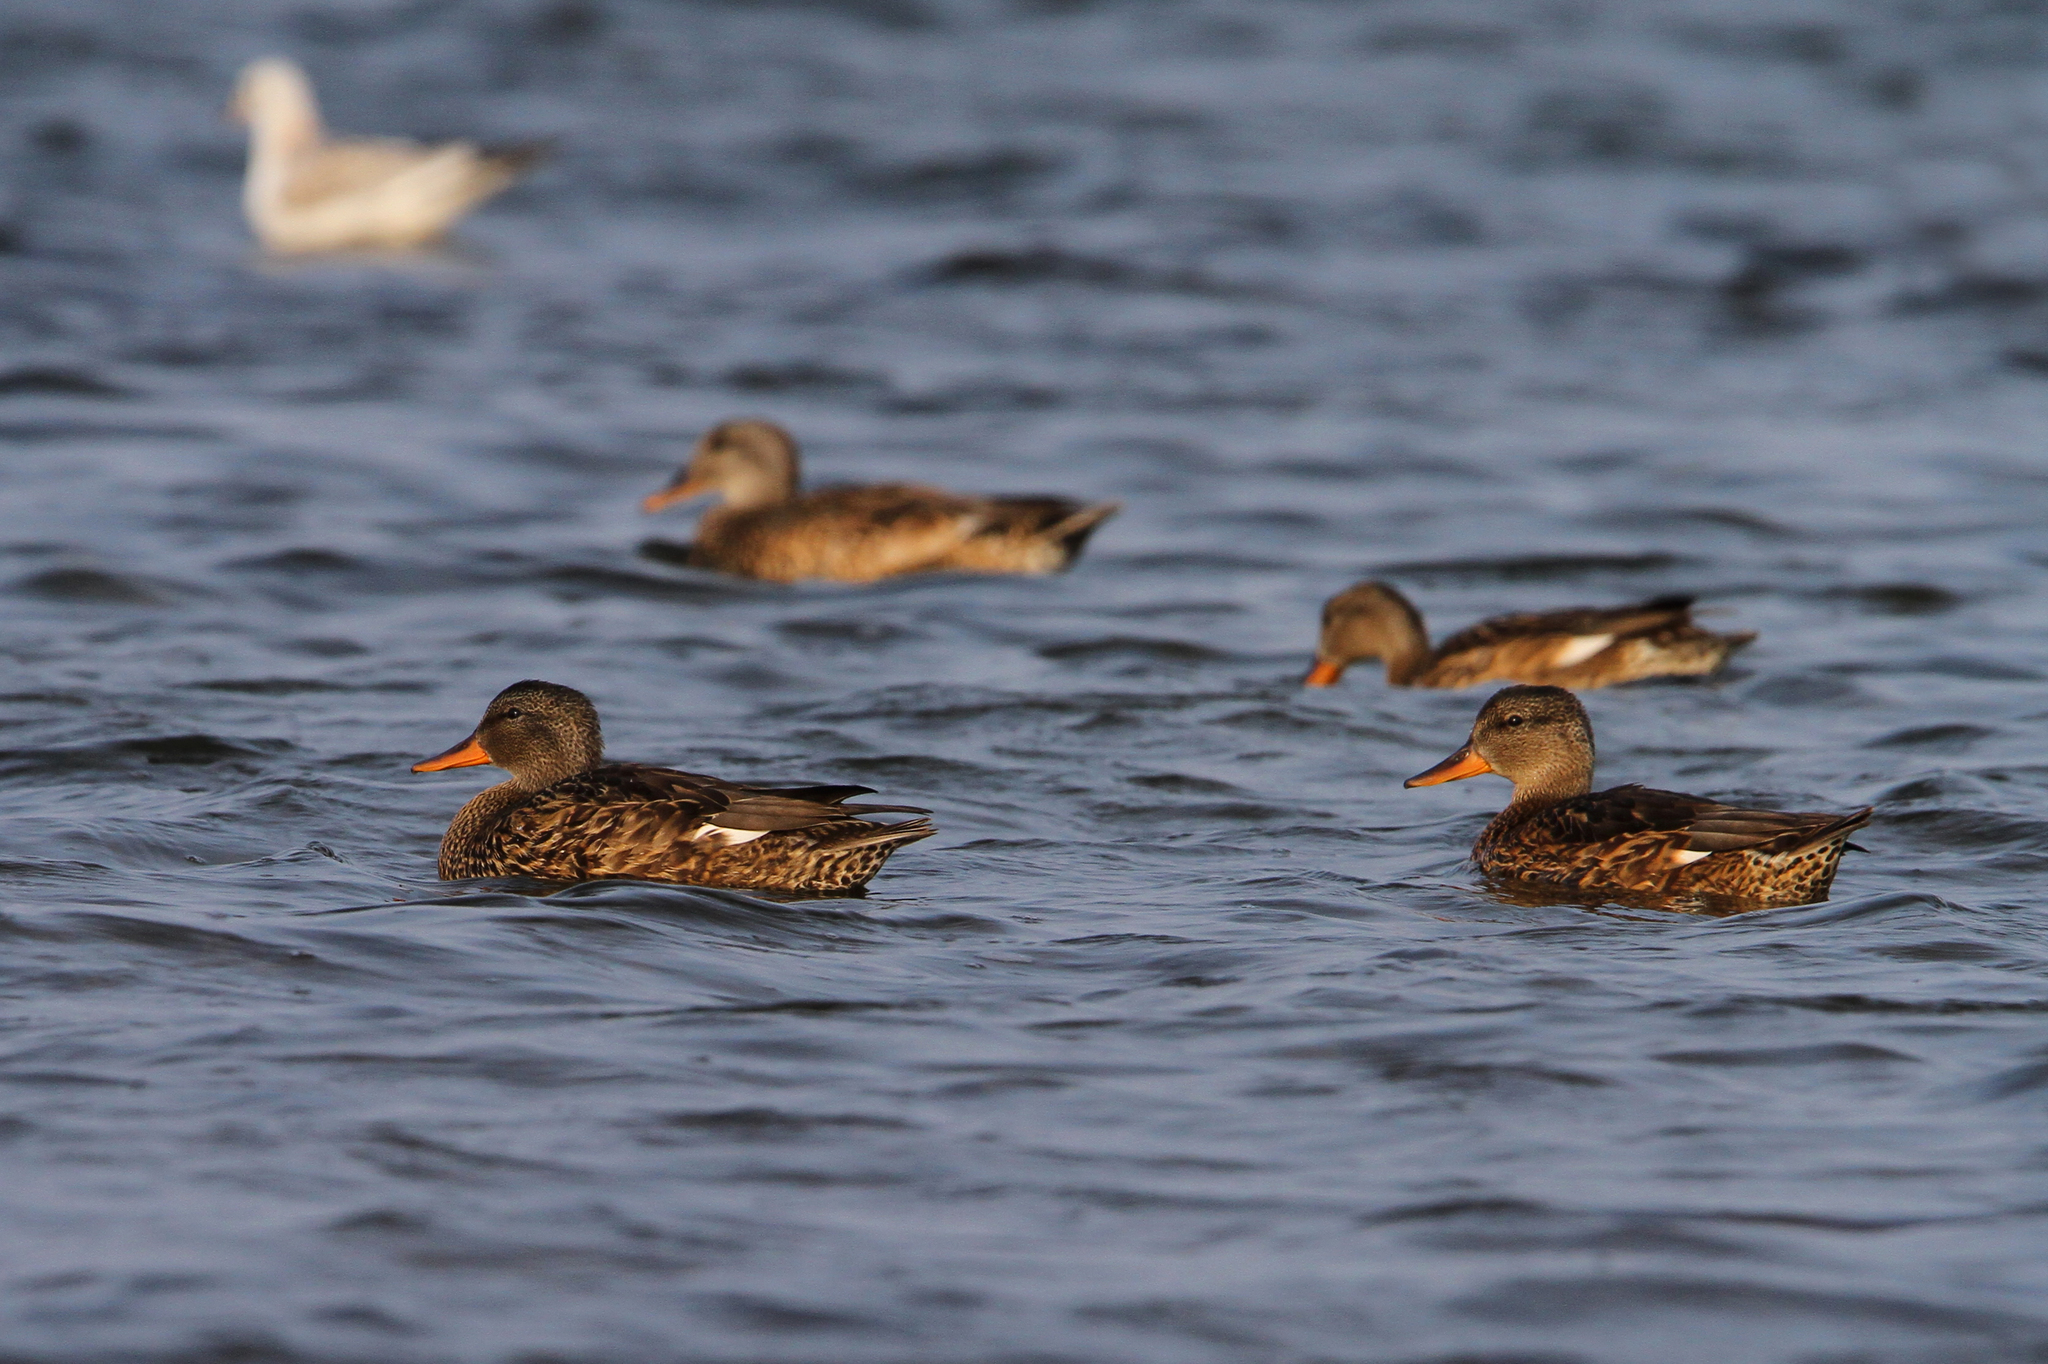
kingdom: Animalia
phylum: Chordata
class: Aves
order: Anseriformes
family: Anatidae
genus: Mareca
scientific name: Mareca strepera
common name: Gadwall
